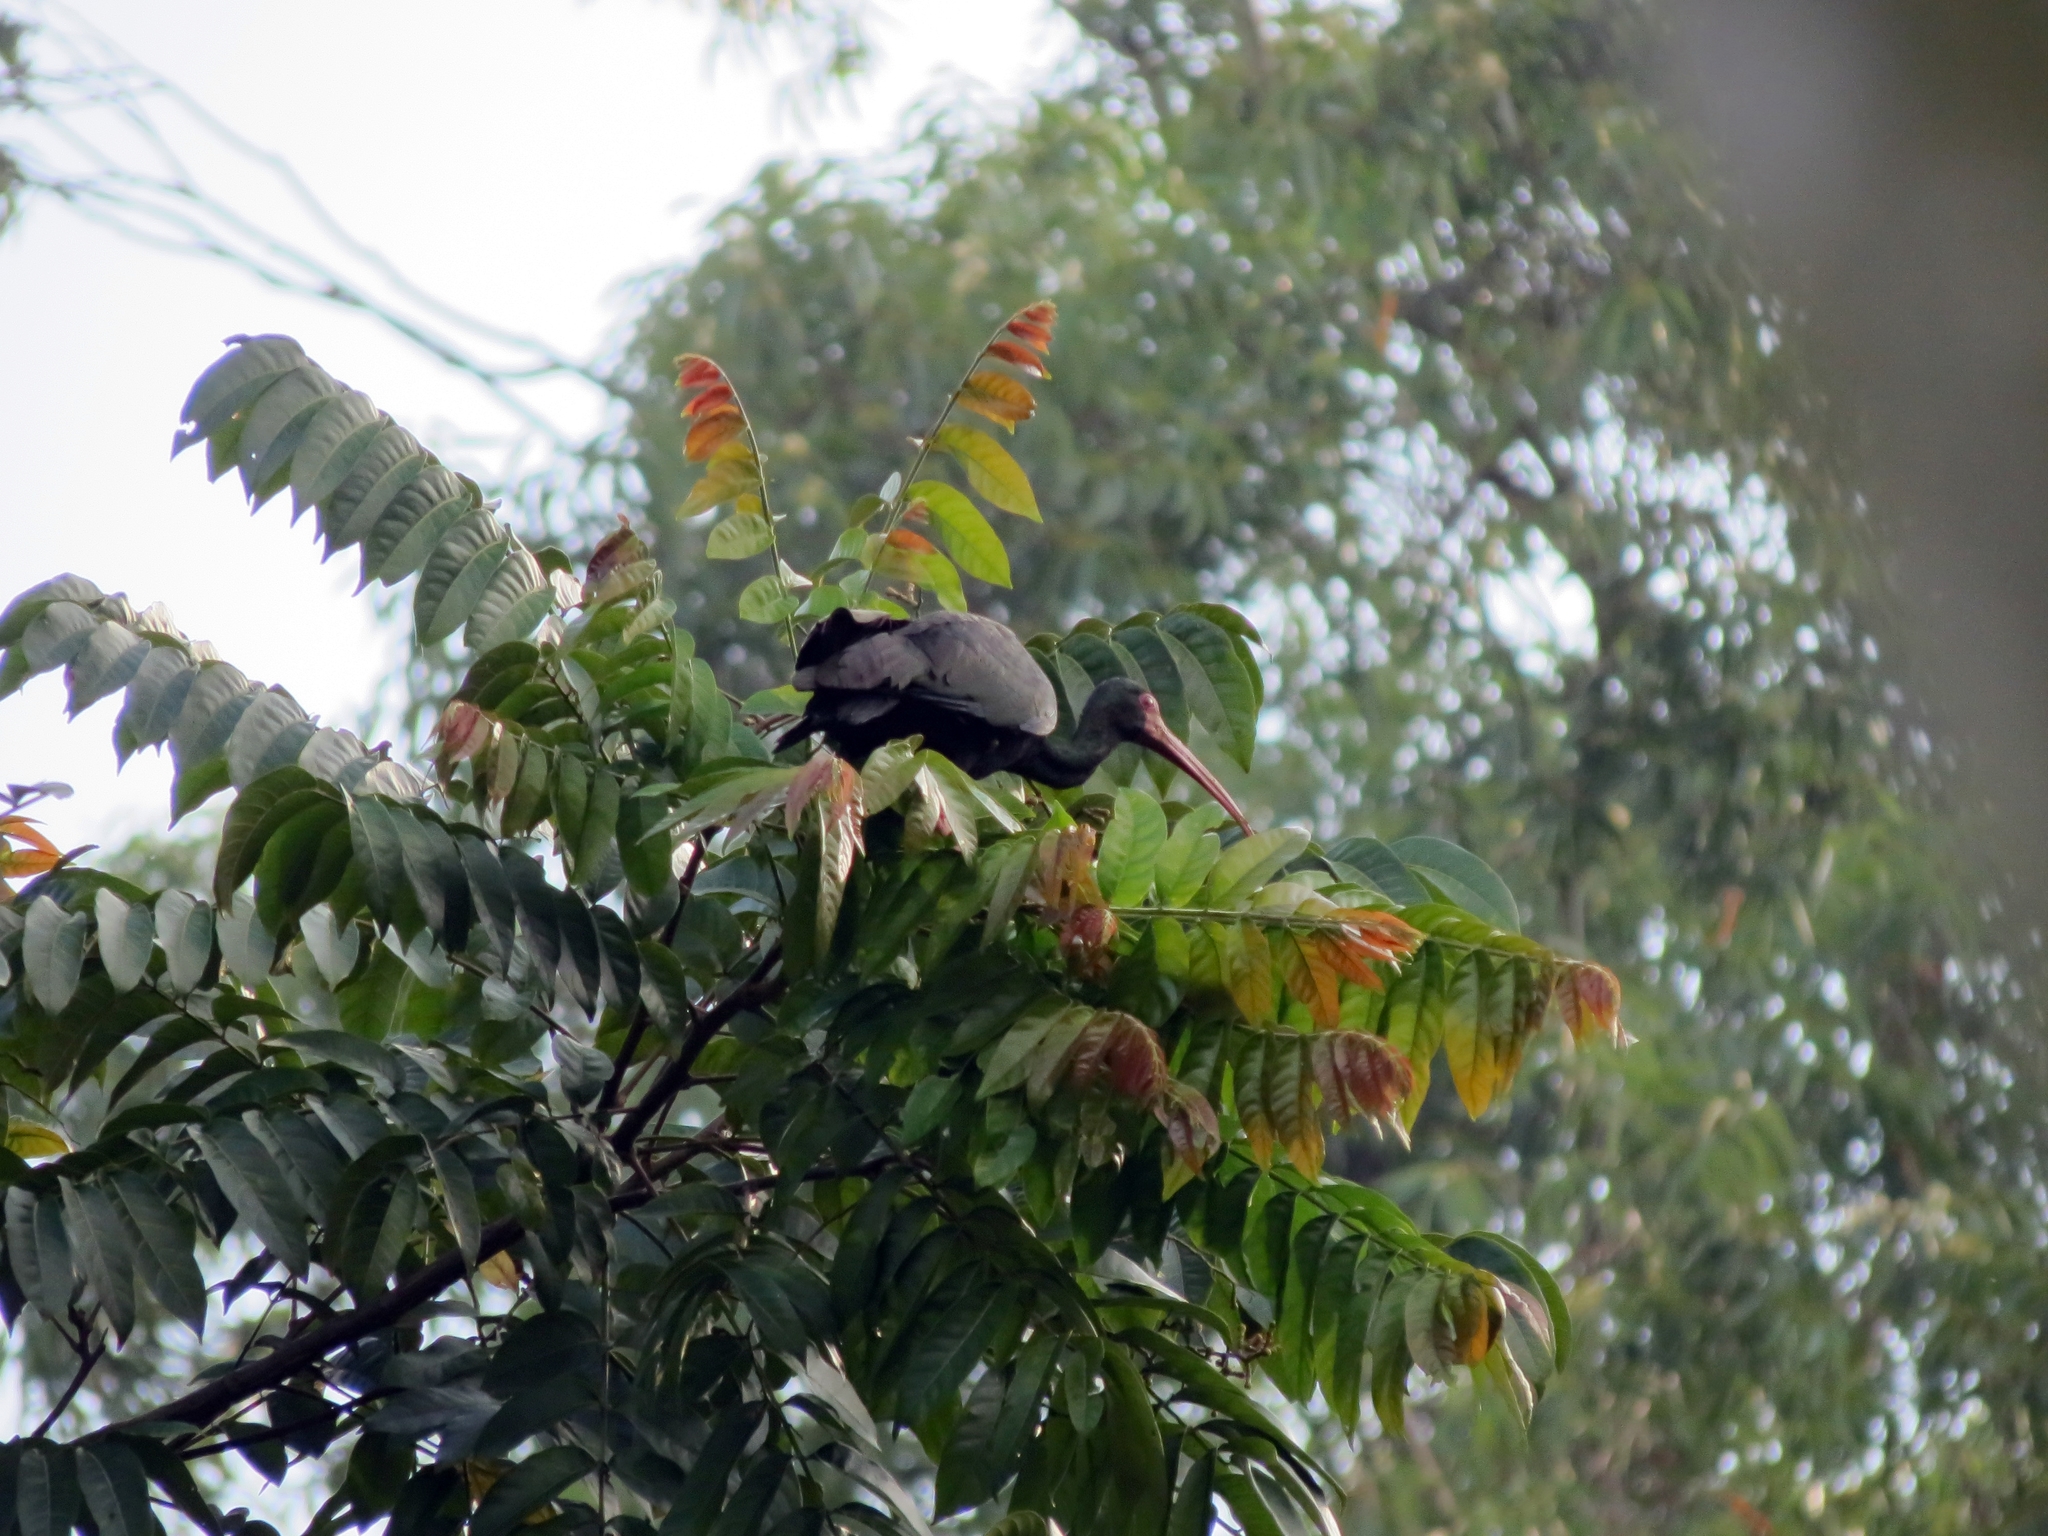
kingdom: Animalia
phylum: Chordata
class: Aves
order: Pelecaniformes
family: Threskiornithidae
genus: Phimosus
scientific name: Phimosus infuscatus
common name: Bare-faced ibis
